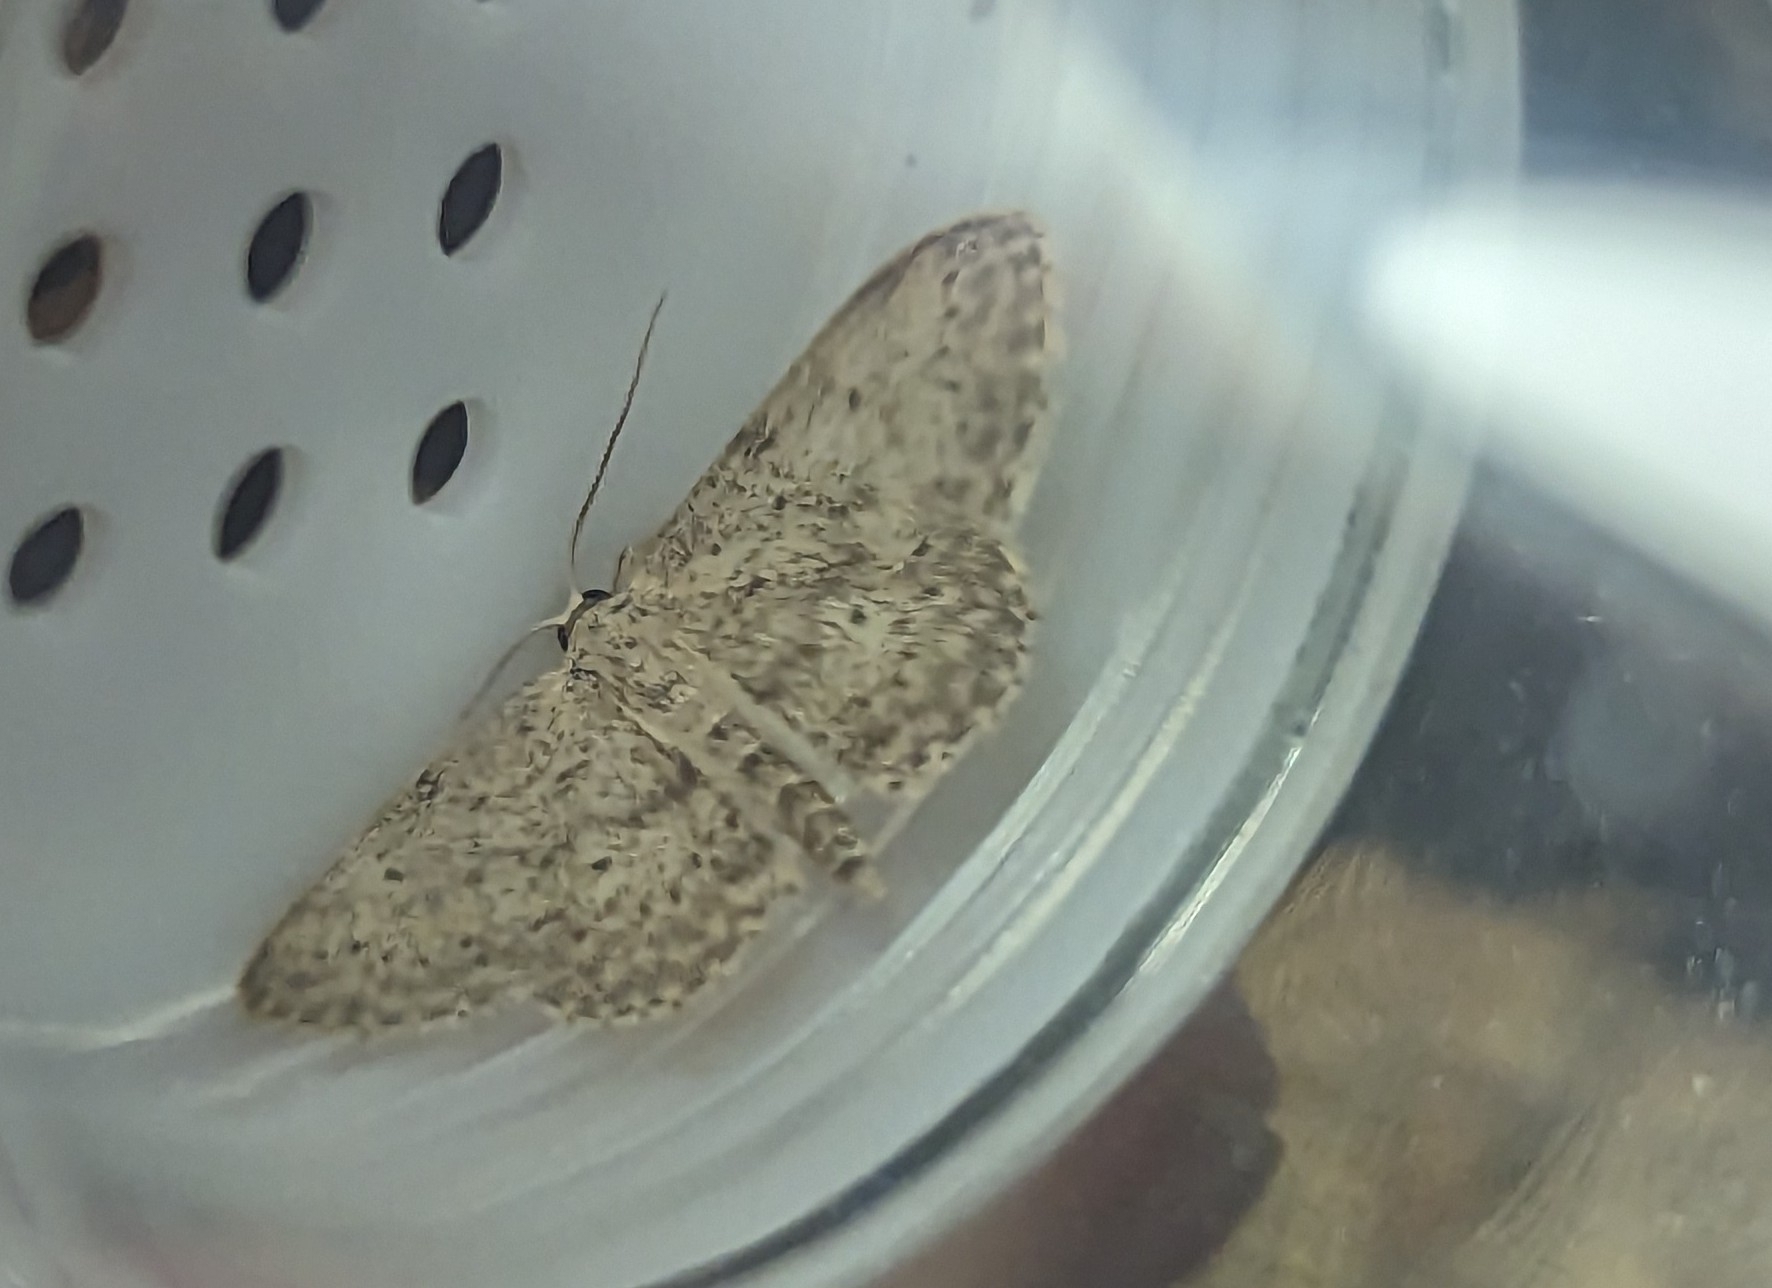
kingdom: Animalia
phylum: Arthropoda
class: Insecta
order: Lepidoptera
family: Geometridae
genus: Idaea
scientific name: Idaea seriata
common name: Small dusty wave
